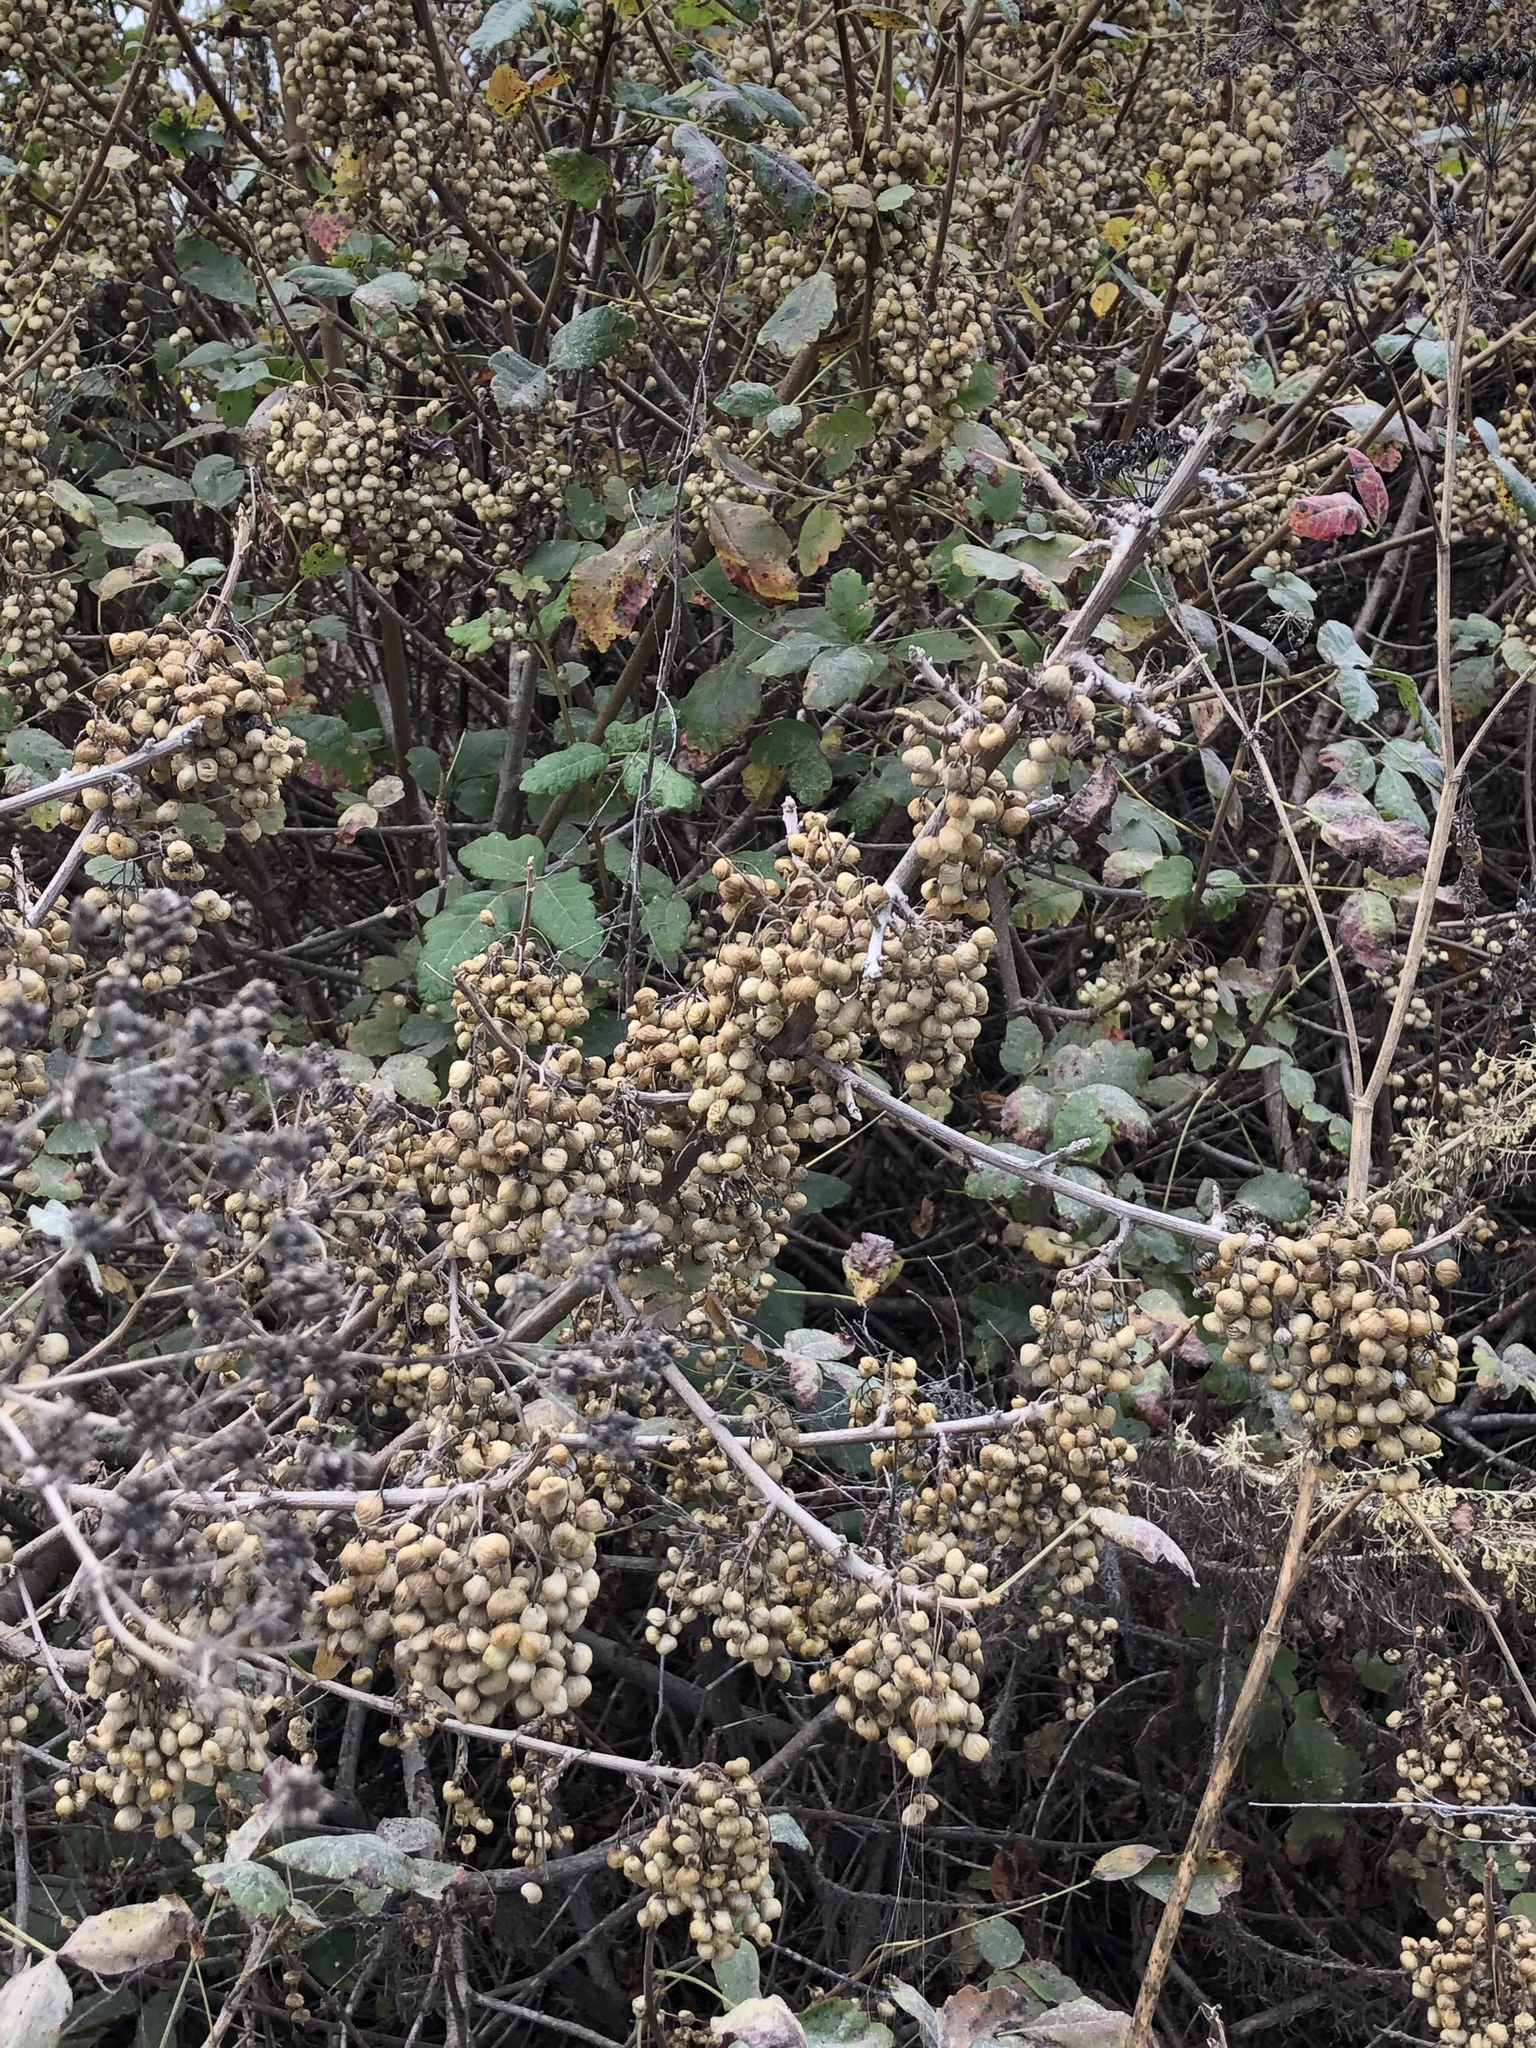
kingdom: Plantae
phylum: Tracheophyta
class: Magnoliopsida
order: Sapindales
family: Anacardiaceae
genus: Toxicodendron
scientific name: Toxicodendron diversilobum
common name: Pacific poison-oak
